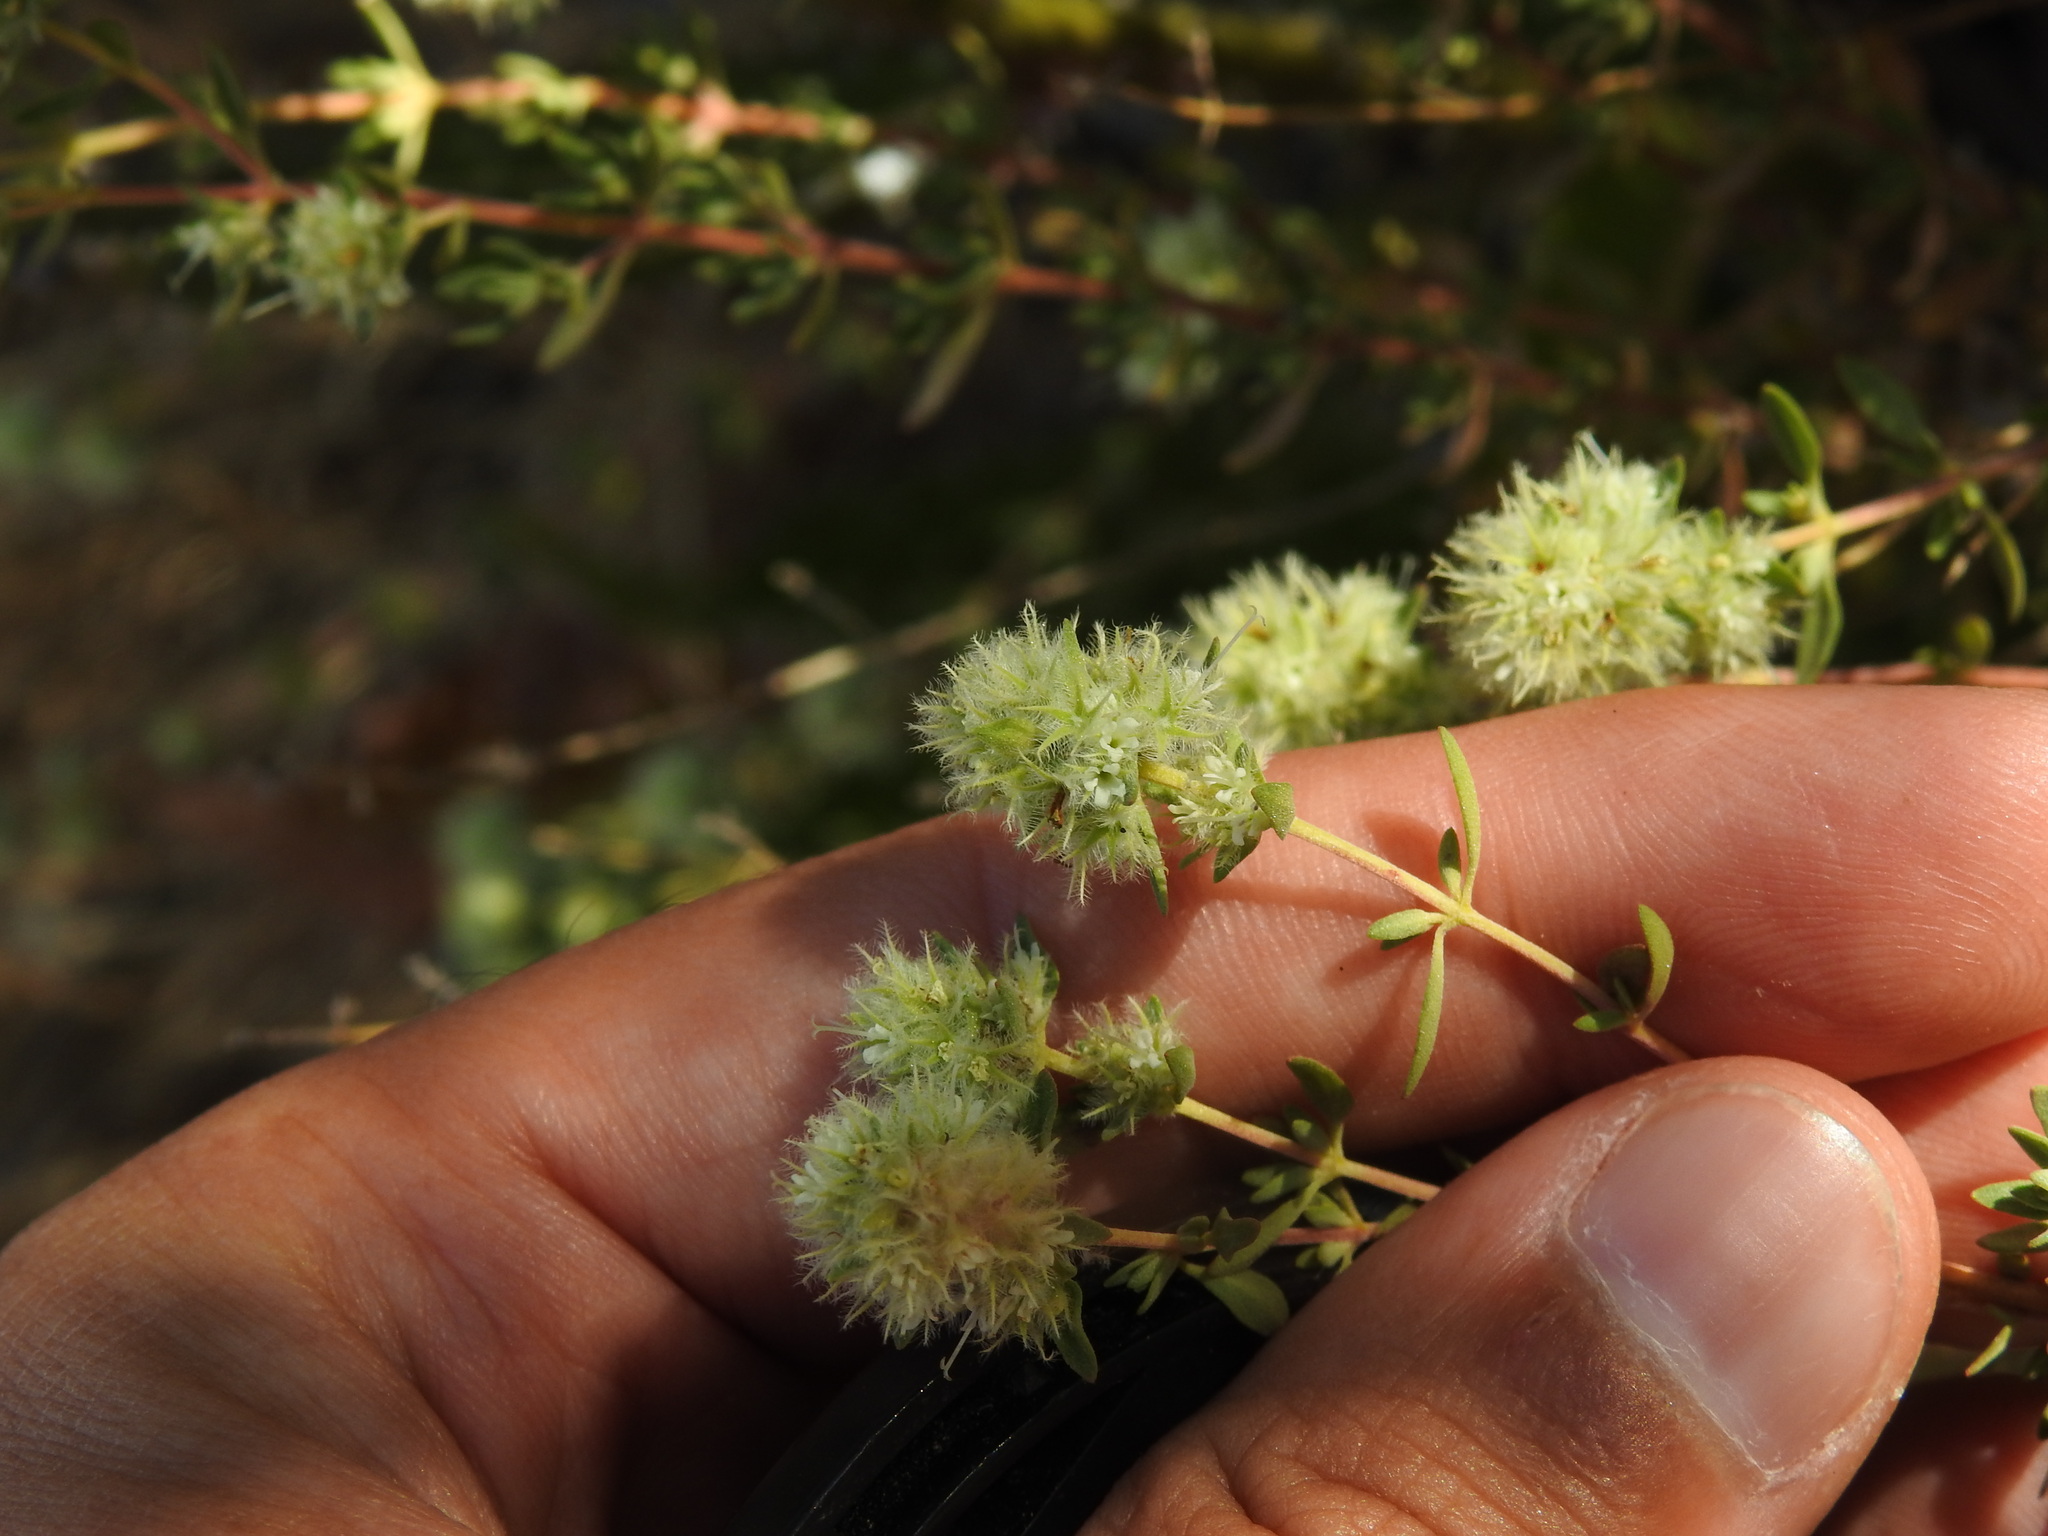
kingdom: Plantae
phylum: Tracheophyta
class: Magnoliopsida
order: Lamiales
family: Lamiaceae
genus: Thymus
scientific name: Thymus mastichina
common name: Mastic thyme
